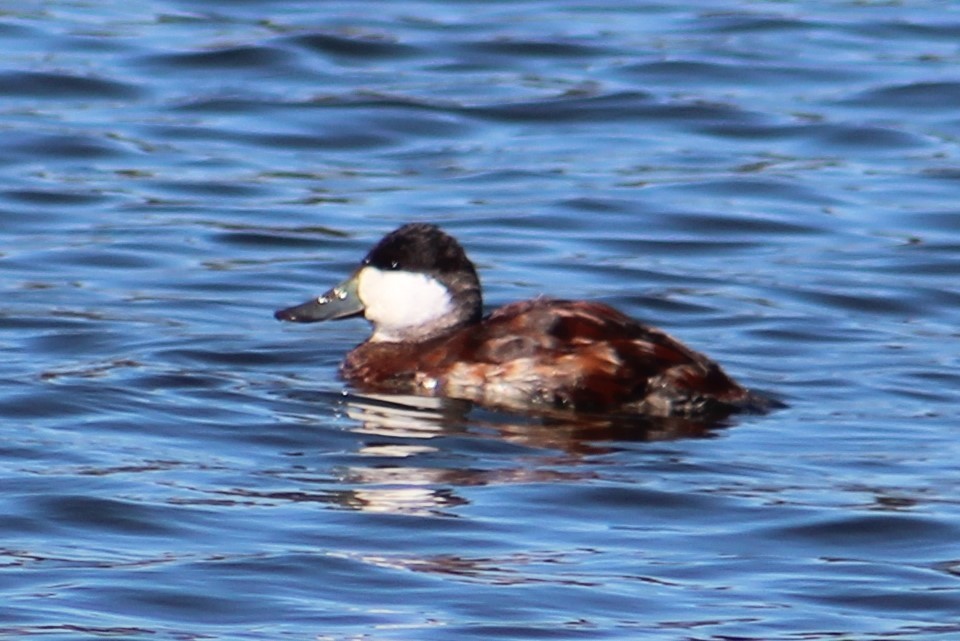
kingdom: Animalia
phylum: Chordata
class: Aves
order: Anseriformes
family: Anatidae
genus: Oxyura
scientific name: Oxyura jamaicensis
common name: Ruddy duck
